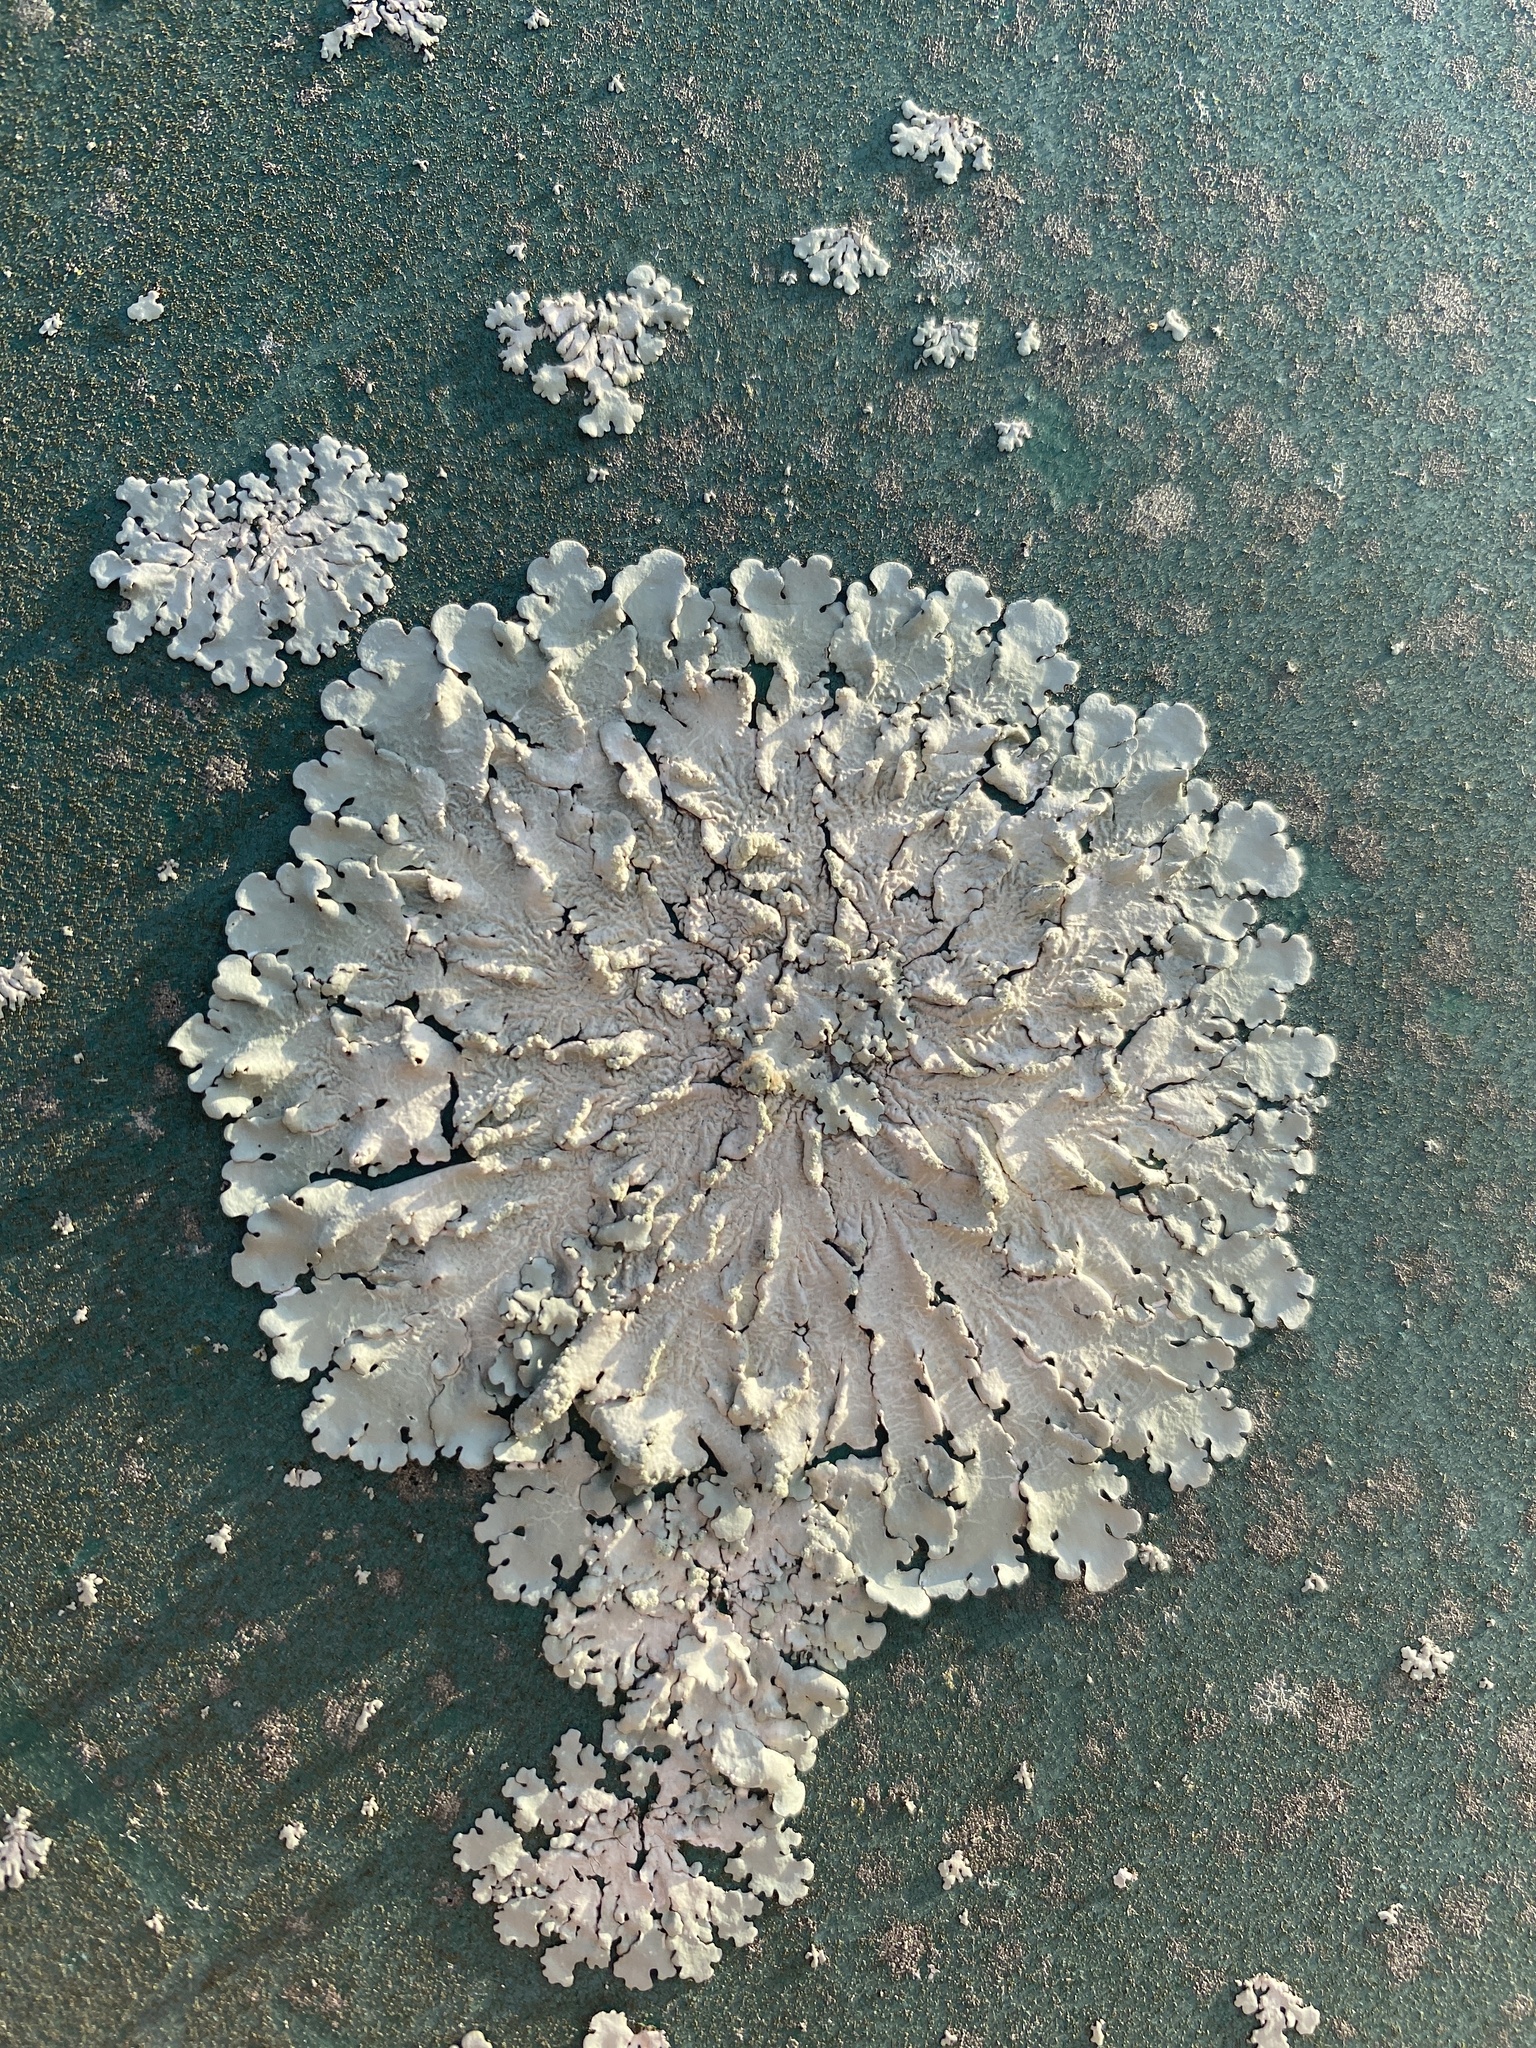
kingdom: Fungi
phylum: Ascomycota
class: Lecanoromycetes
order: Lecanorales
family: Parmeliaceae
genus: Canoparmelia
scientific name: Canoparmelia texana
